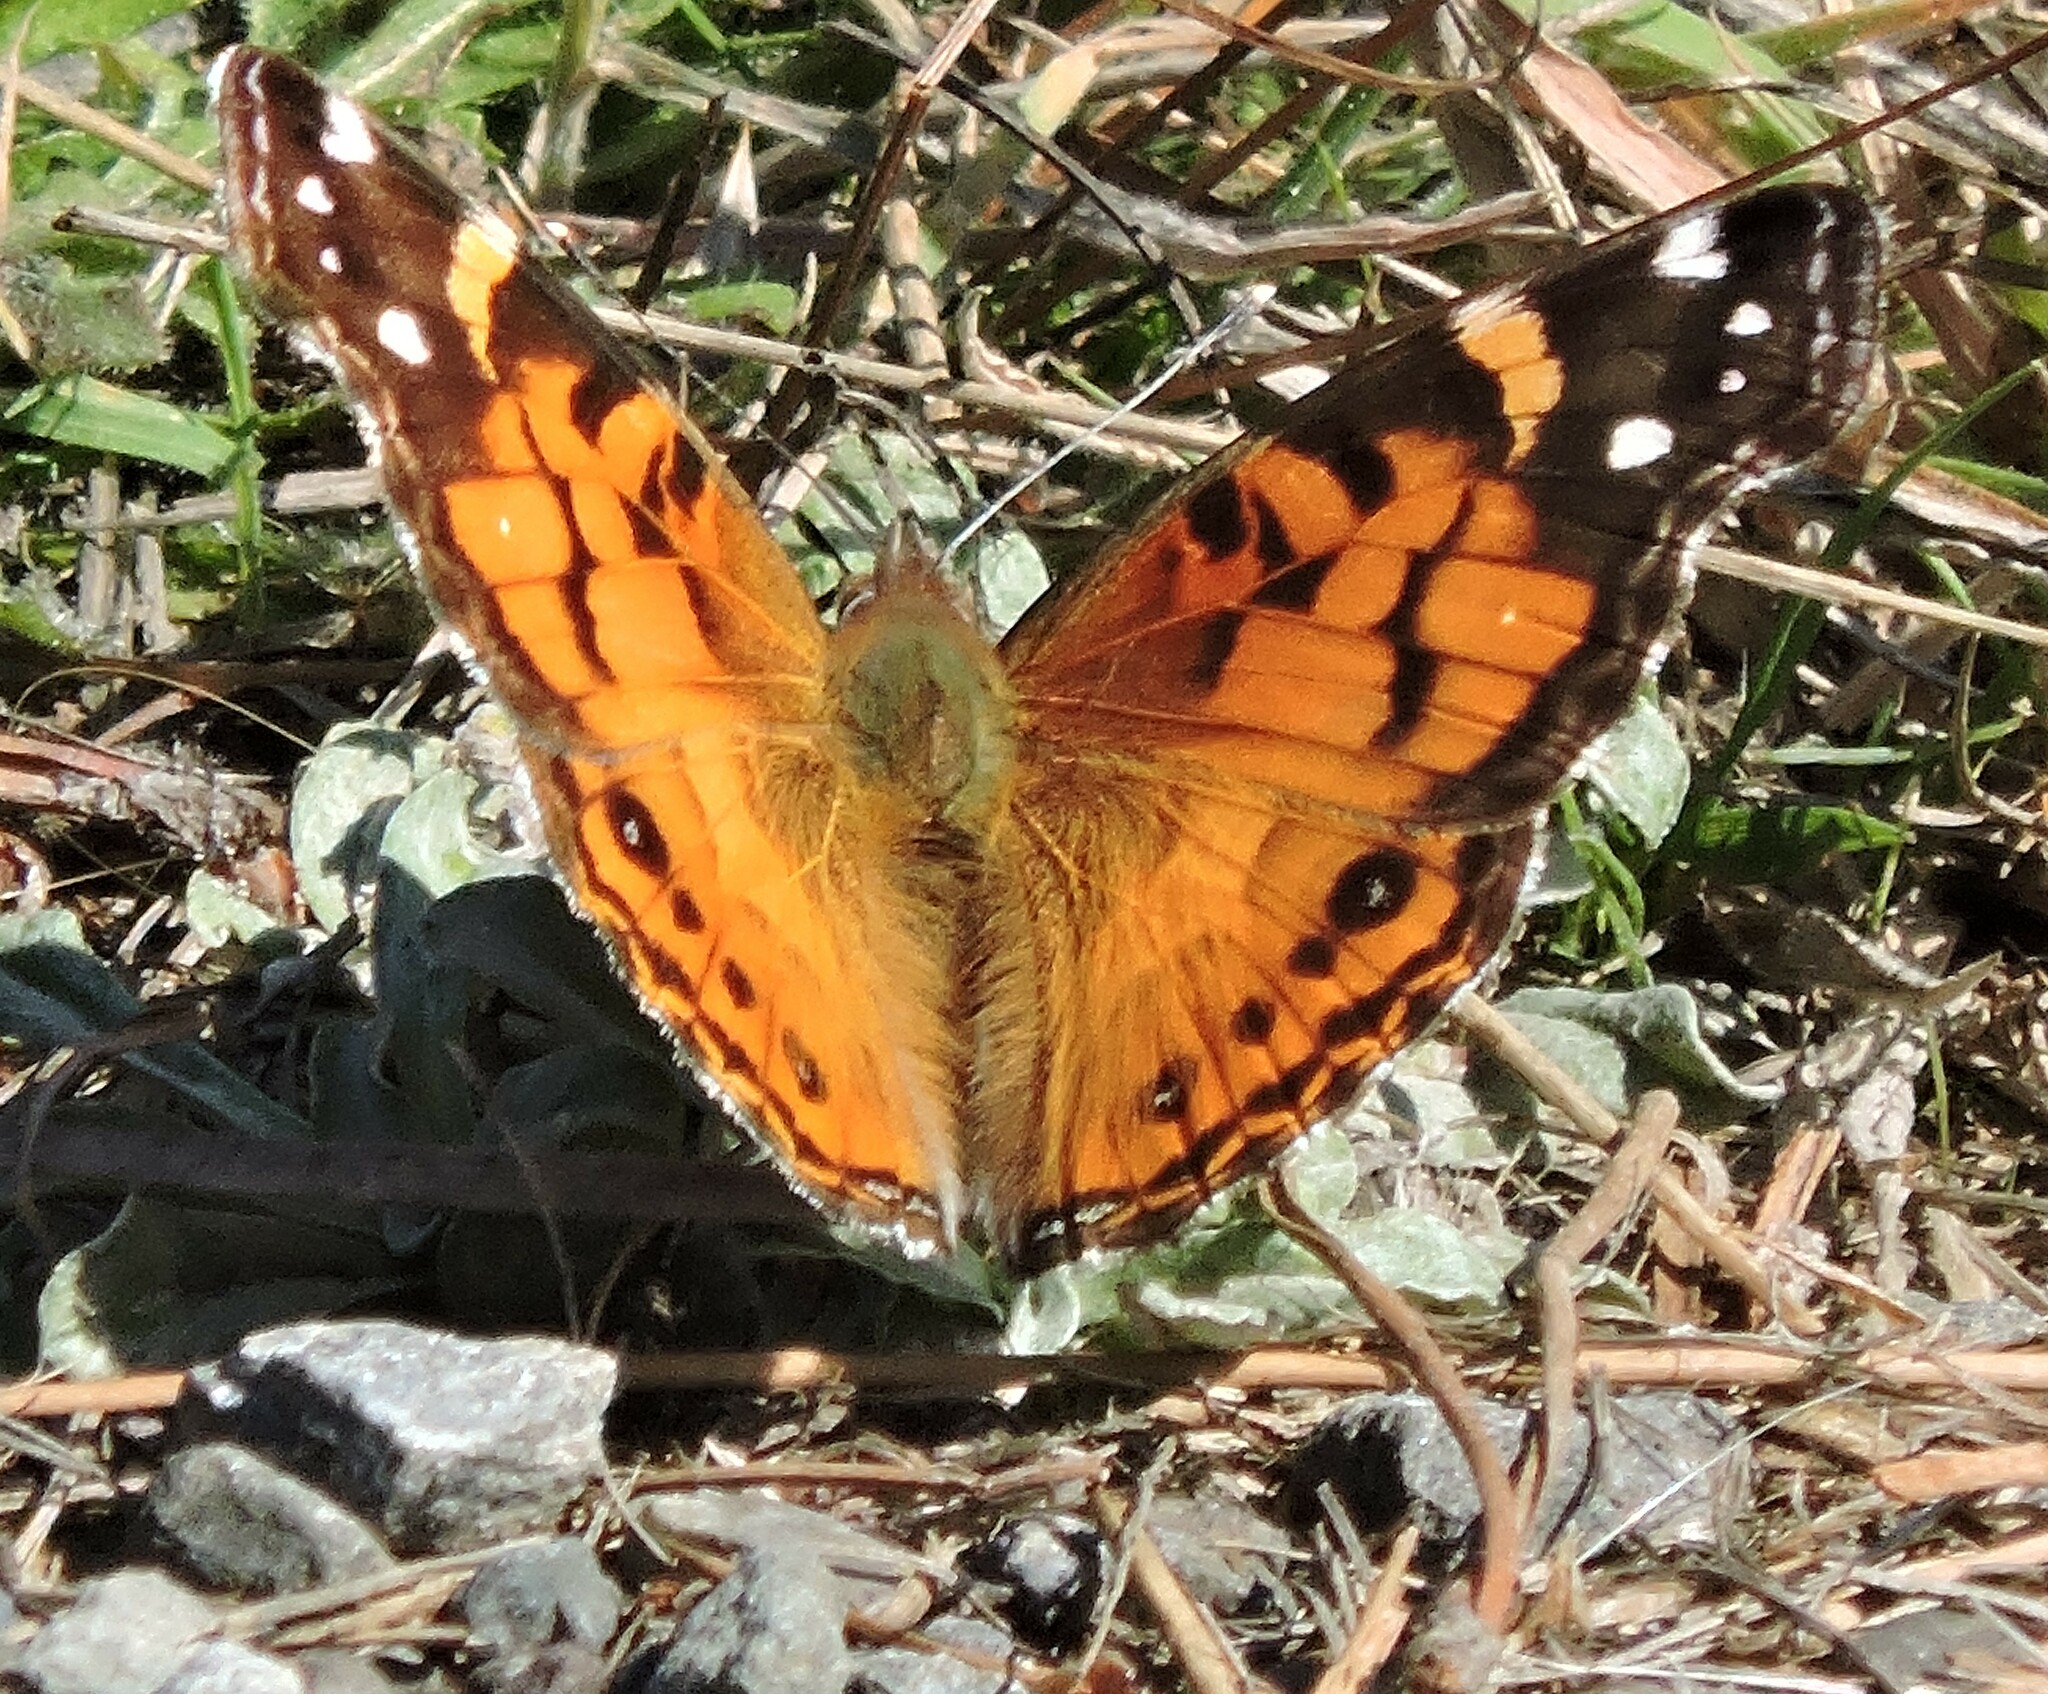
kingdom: Animalia
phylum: Arthropoda
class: Insecta
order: Lepidoptera
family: Nymphalidae
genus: Vanessa
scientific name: Vanessa virginiensis
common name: American lady
